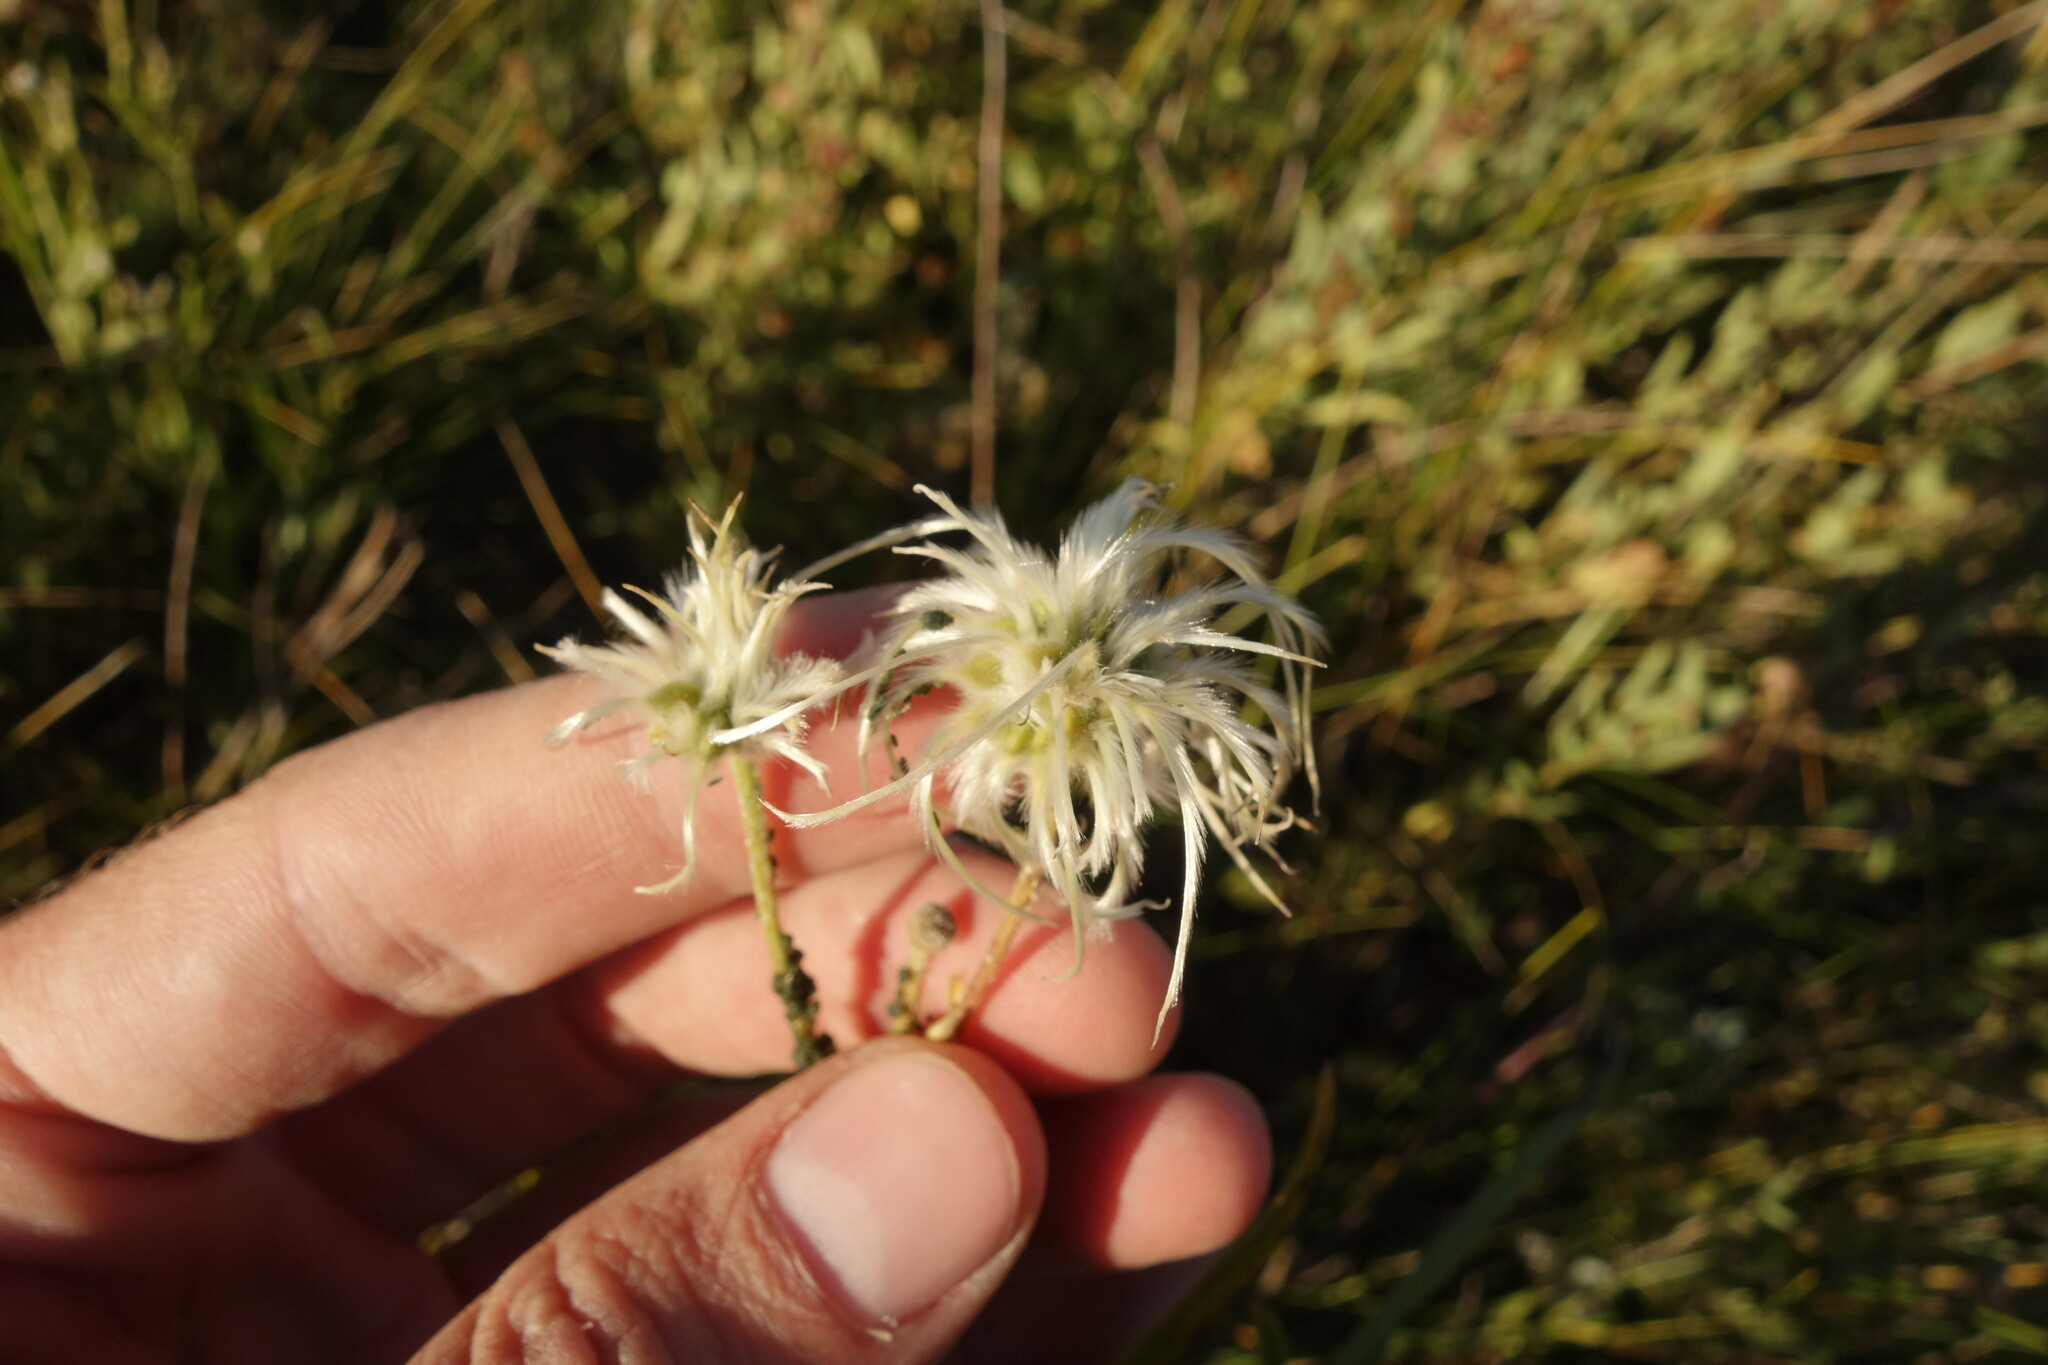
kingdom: Plantae
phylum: Tracheophyta
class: Magnoliopsida
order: Ranunculales
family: Ranunculaceae
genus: Clematis
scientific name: Clematis hexapetala
